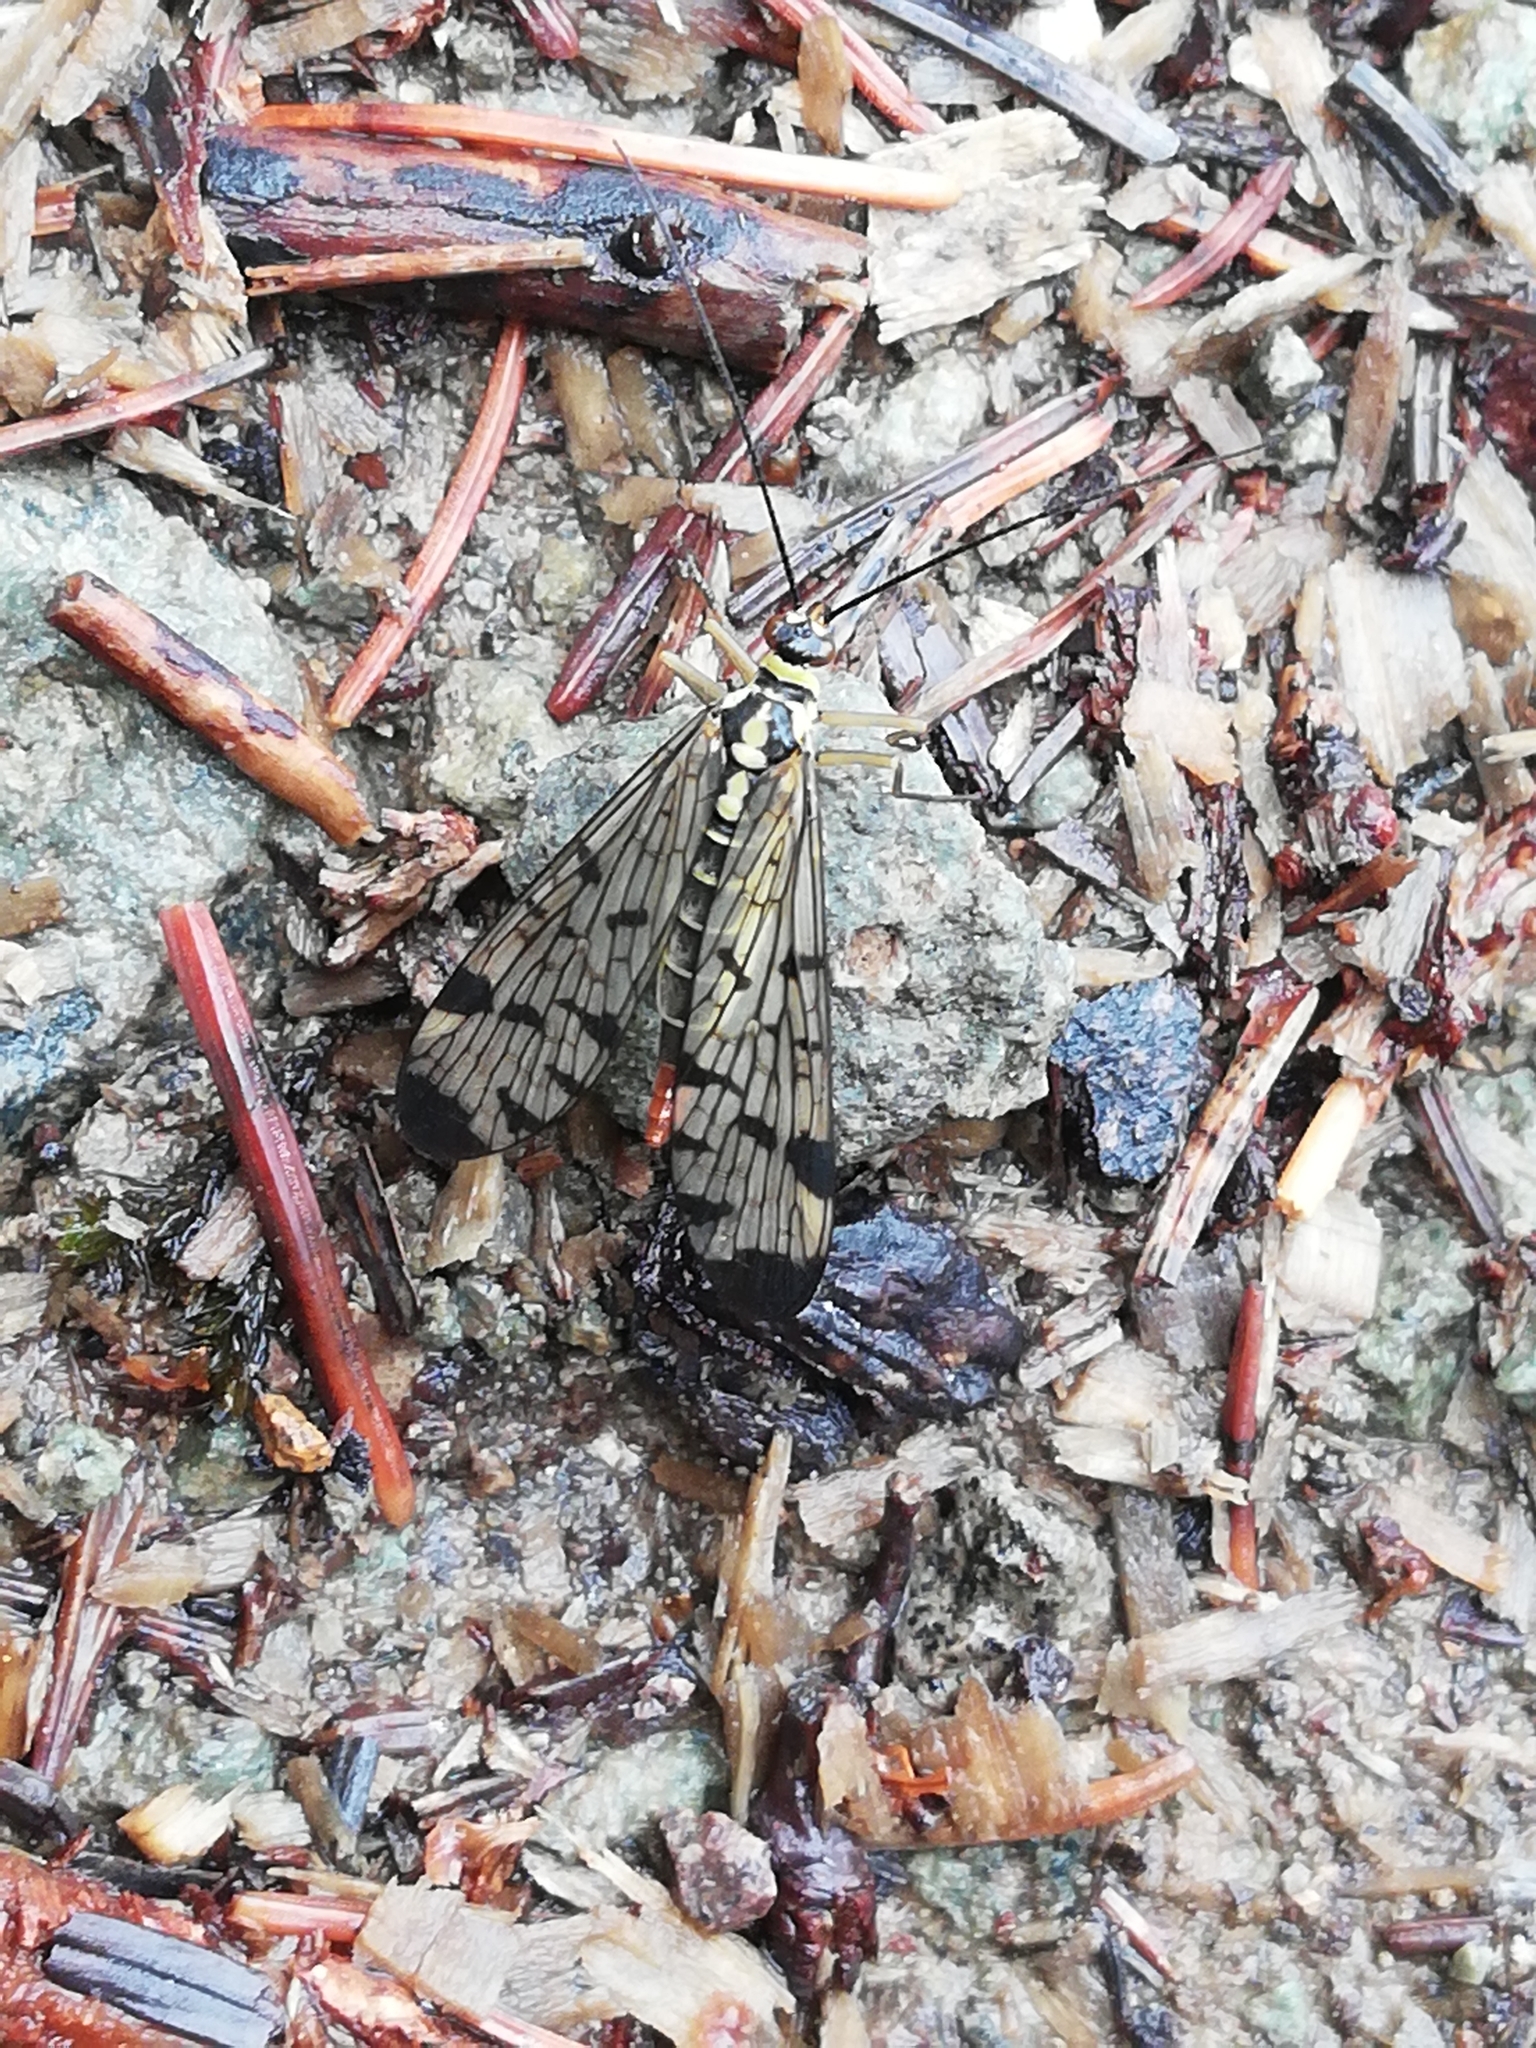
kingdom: Animalia
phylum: Arthropoda
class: Insecta
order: Mecoptera
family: Panorpidae
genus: Panorpa
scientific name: Panorpa communis
